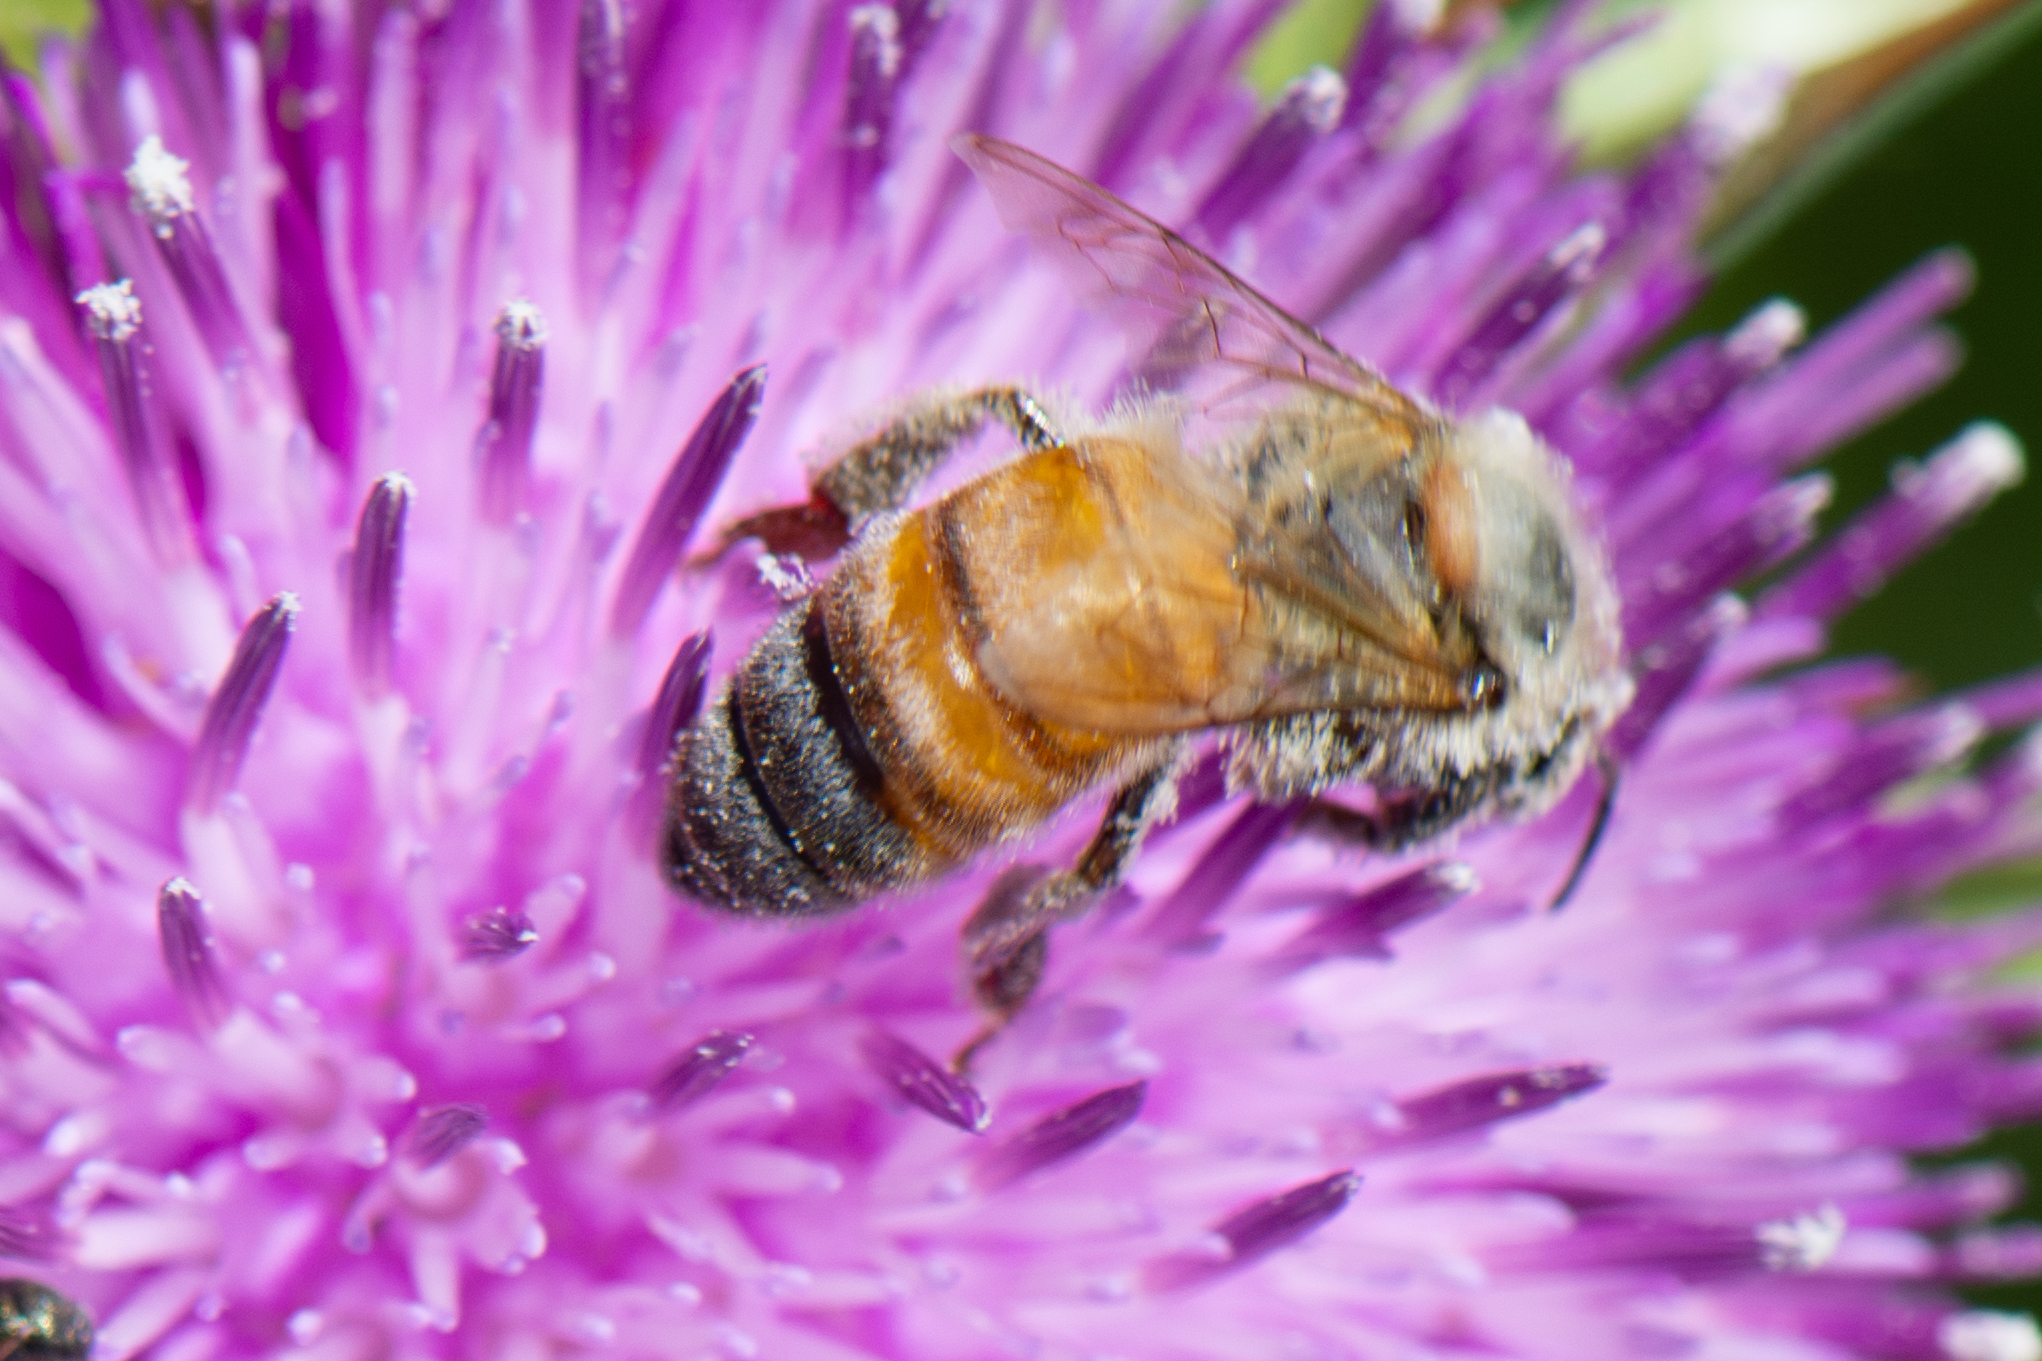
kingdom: Animalia
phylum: Arthropoda
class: Insecta
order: Hymenoptera
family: Apidae
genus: Apis
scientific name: Apis mellifera
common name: Honey bee
